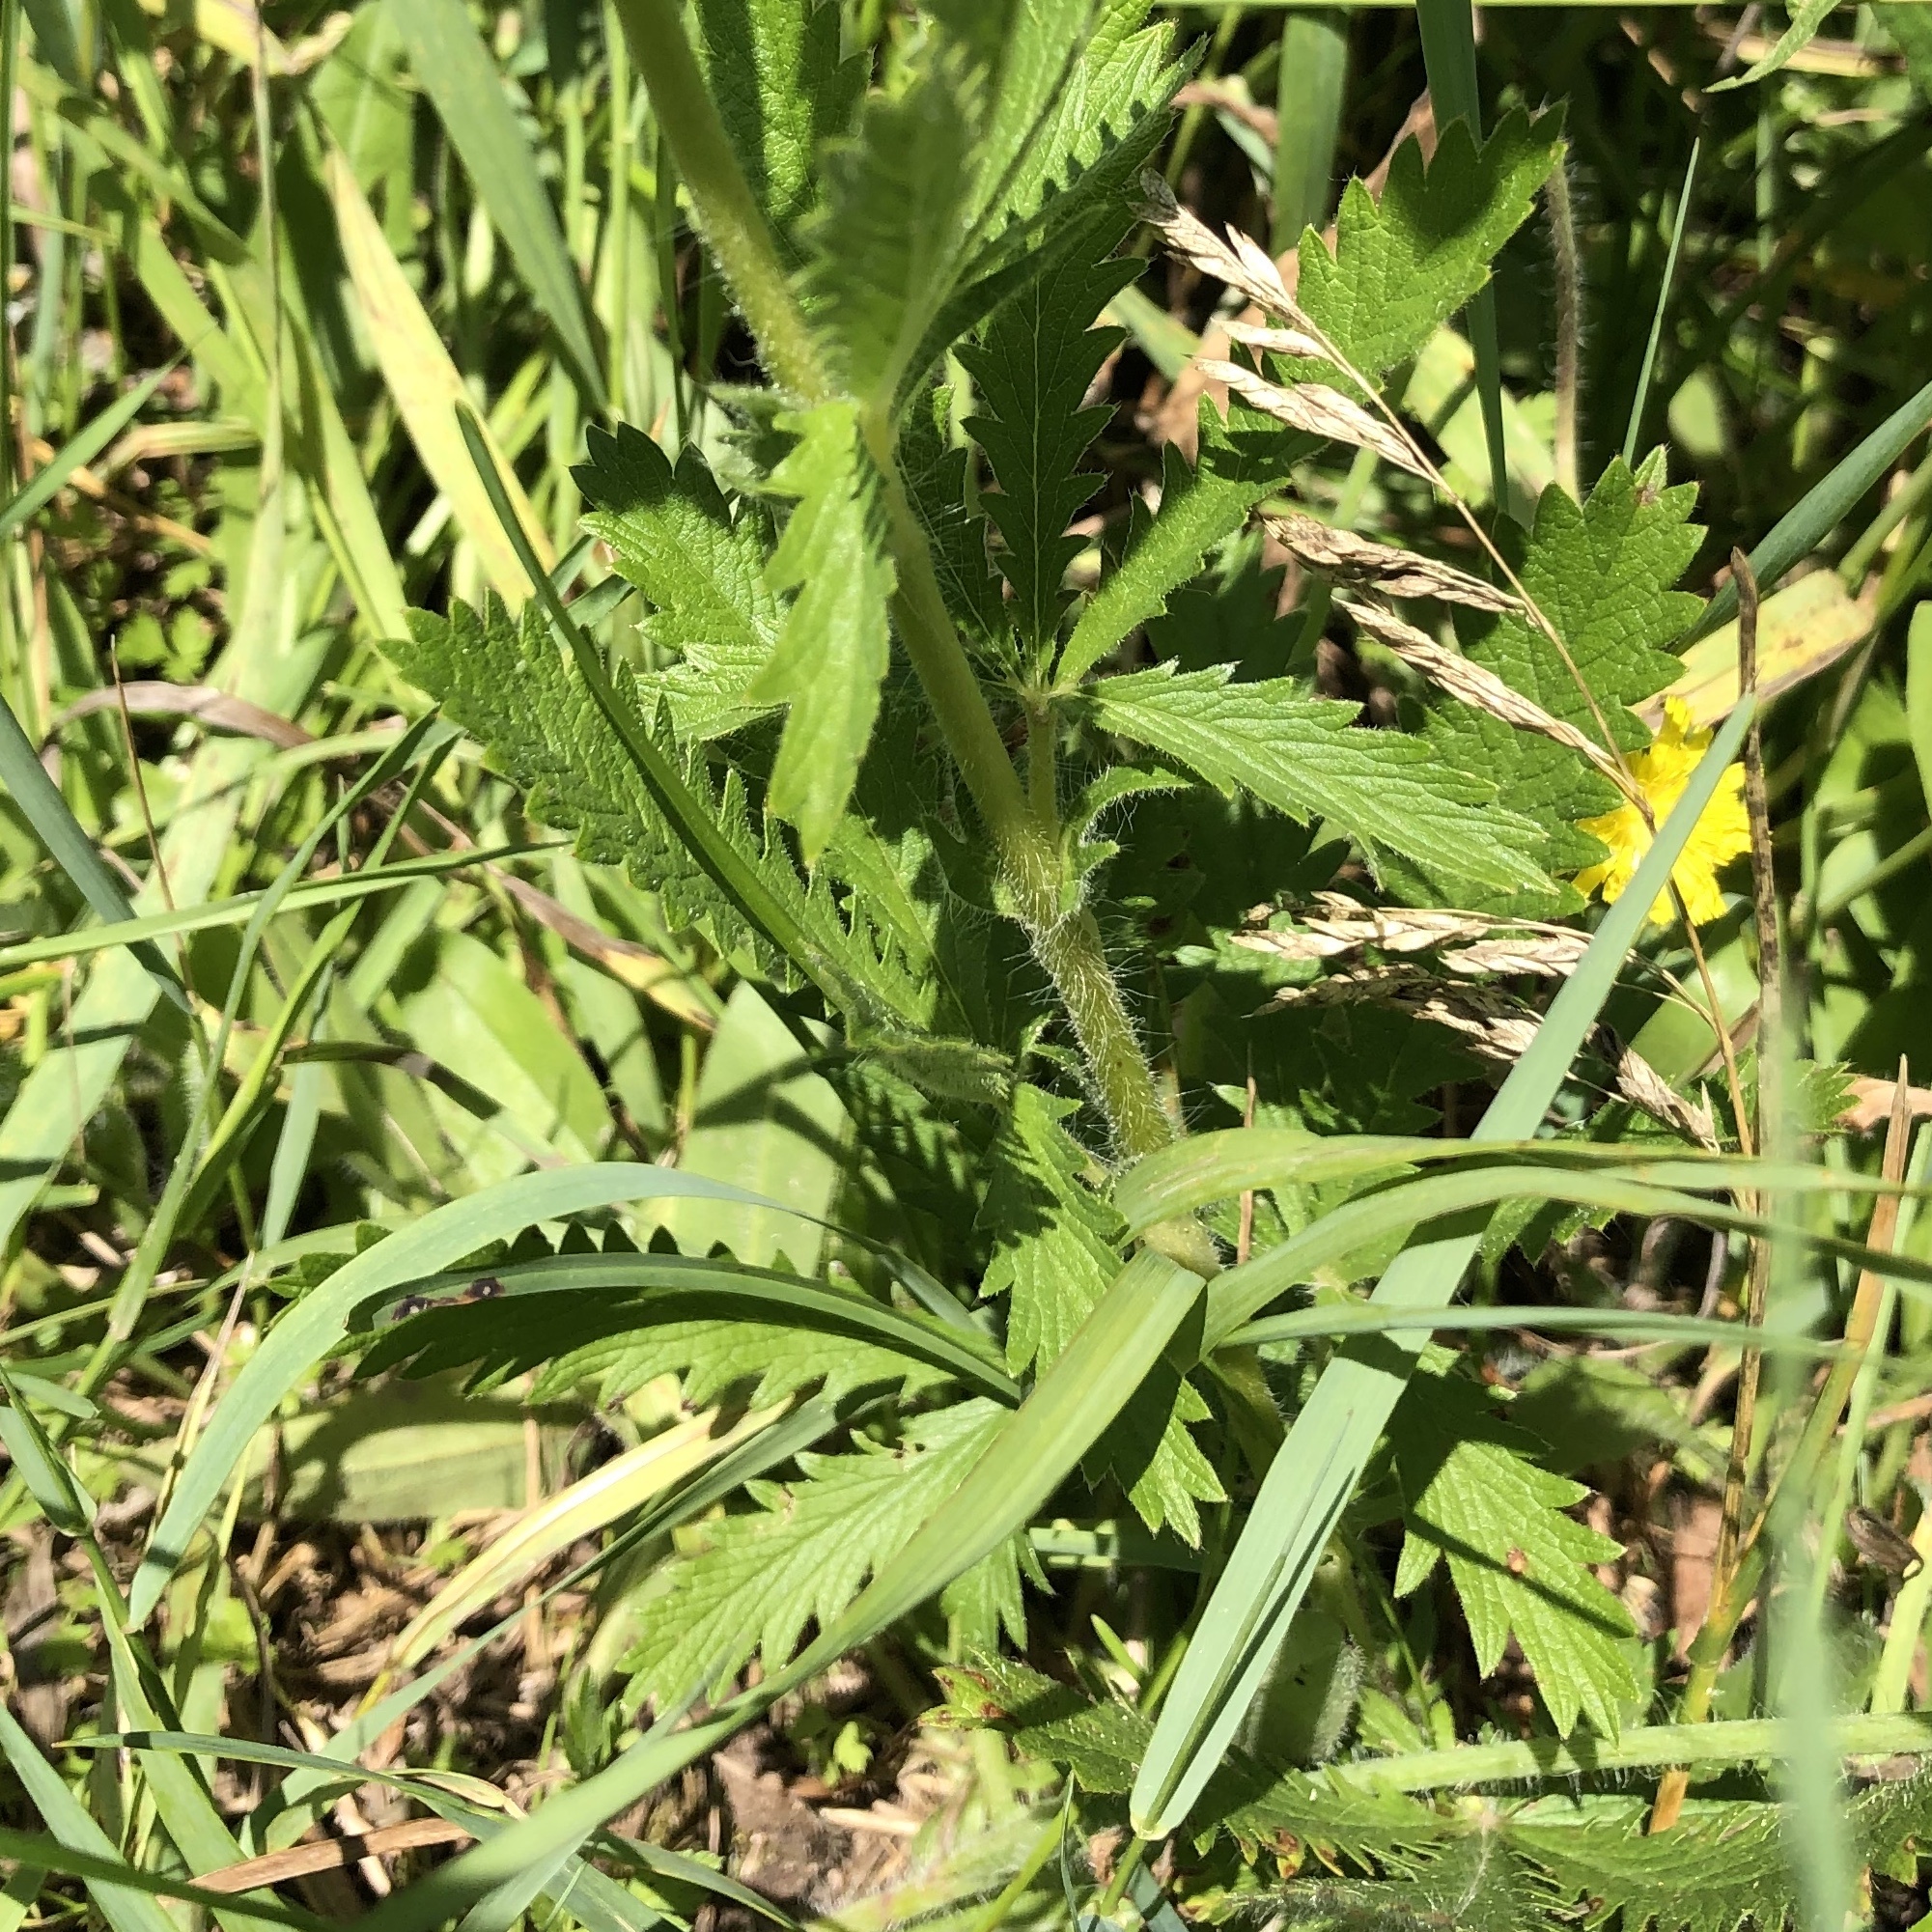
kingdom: Plantae
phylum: Tracheophyta
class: Magnoliopsida
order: Rosales
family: Rosaceae
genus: Potentilla
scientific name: Potentilla recta
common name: Sulphur cinquefoil
